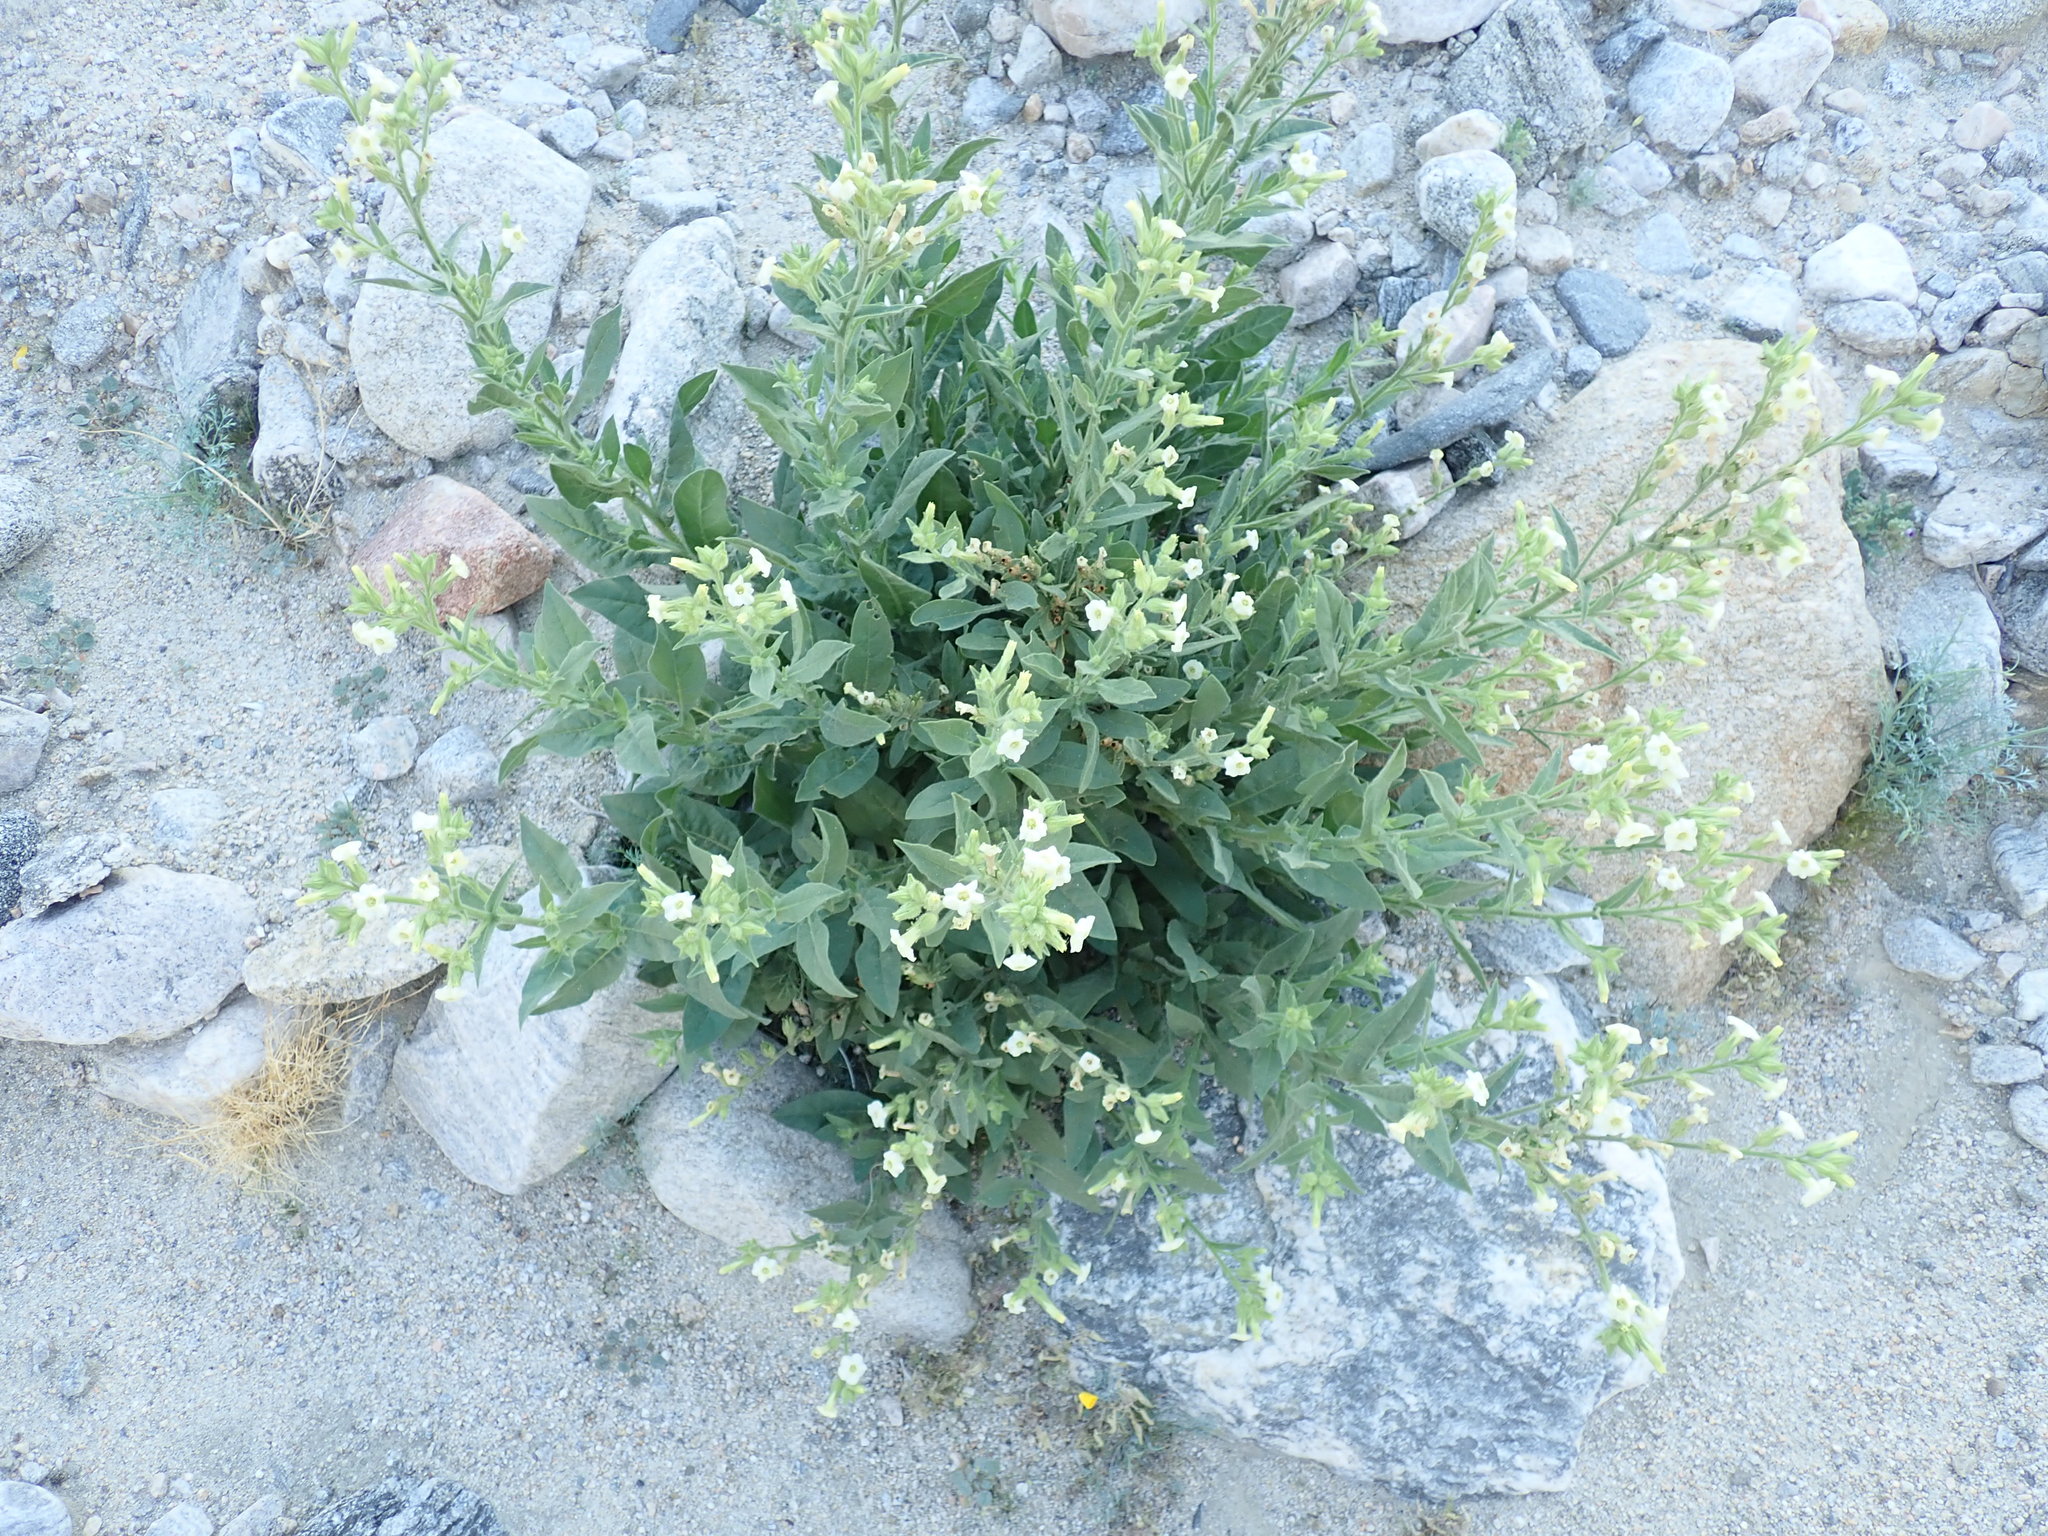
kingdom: Plantae
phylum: Tracheophyta
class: Magnoliopsida
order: Solanales
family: Solanaceae
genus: Nicotiana
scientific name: Nicotiana obtusifolia
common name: Desert tobacco
